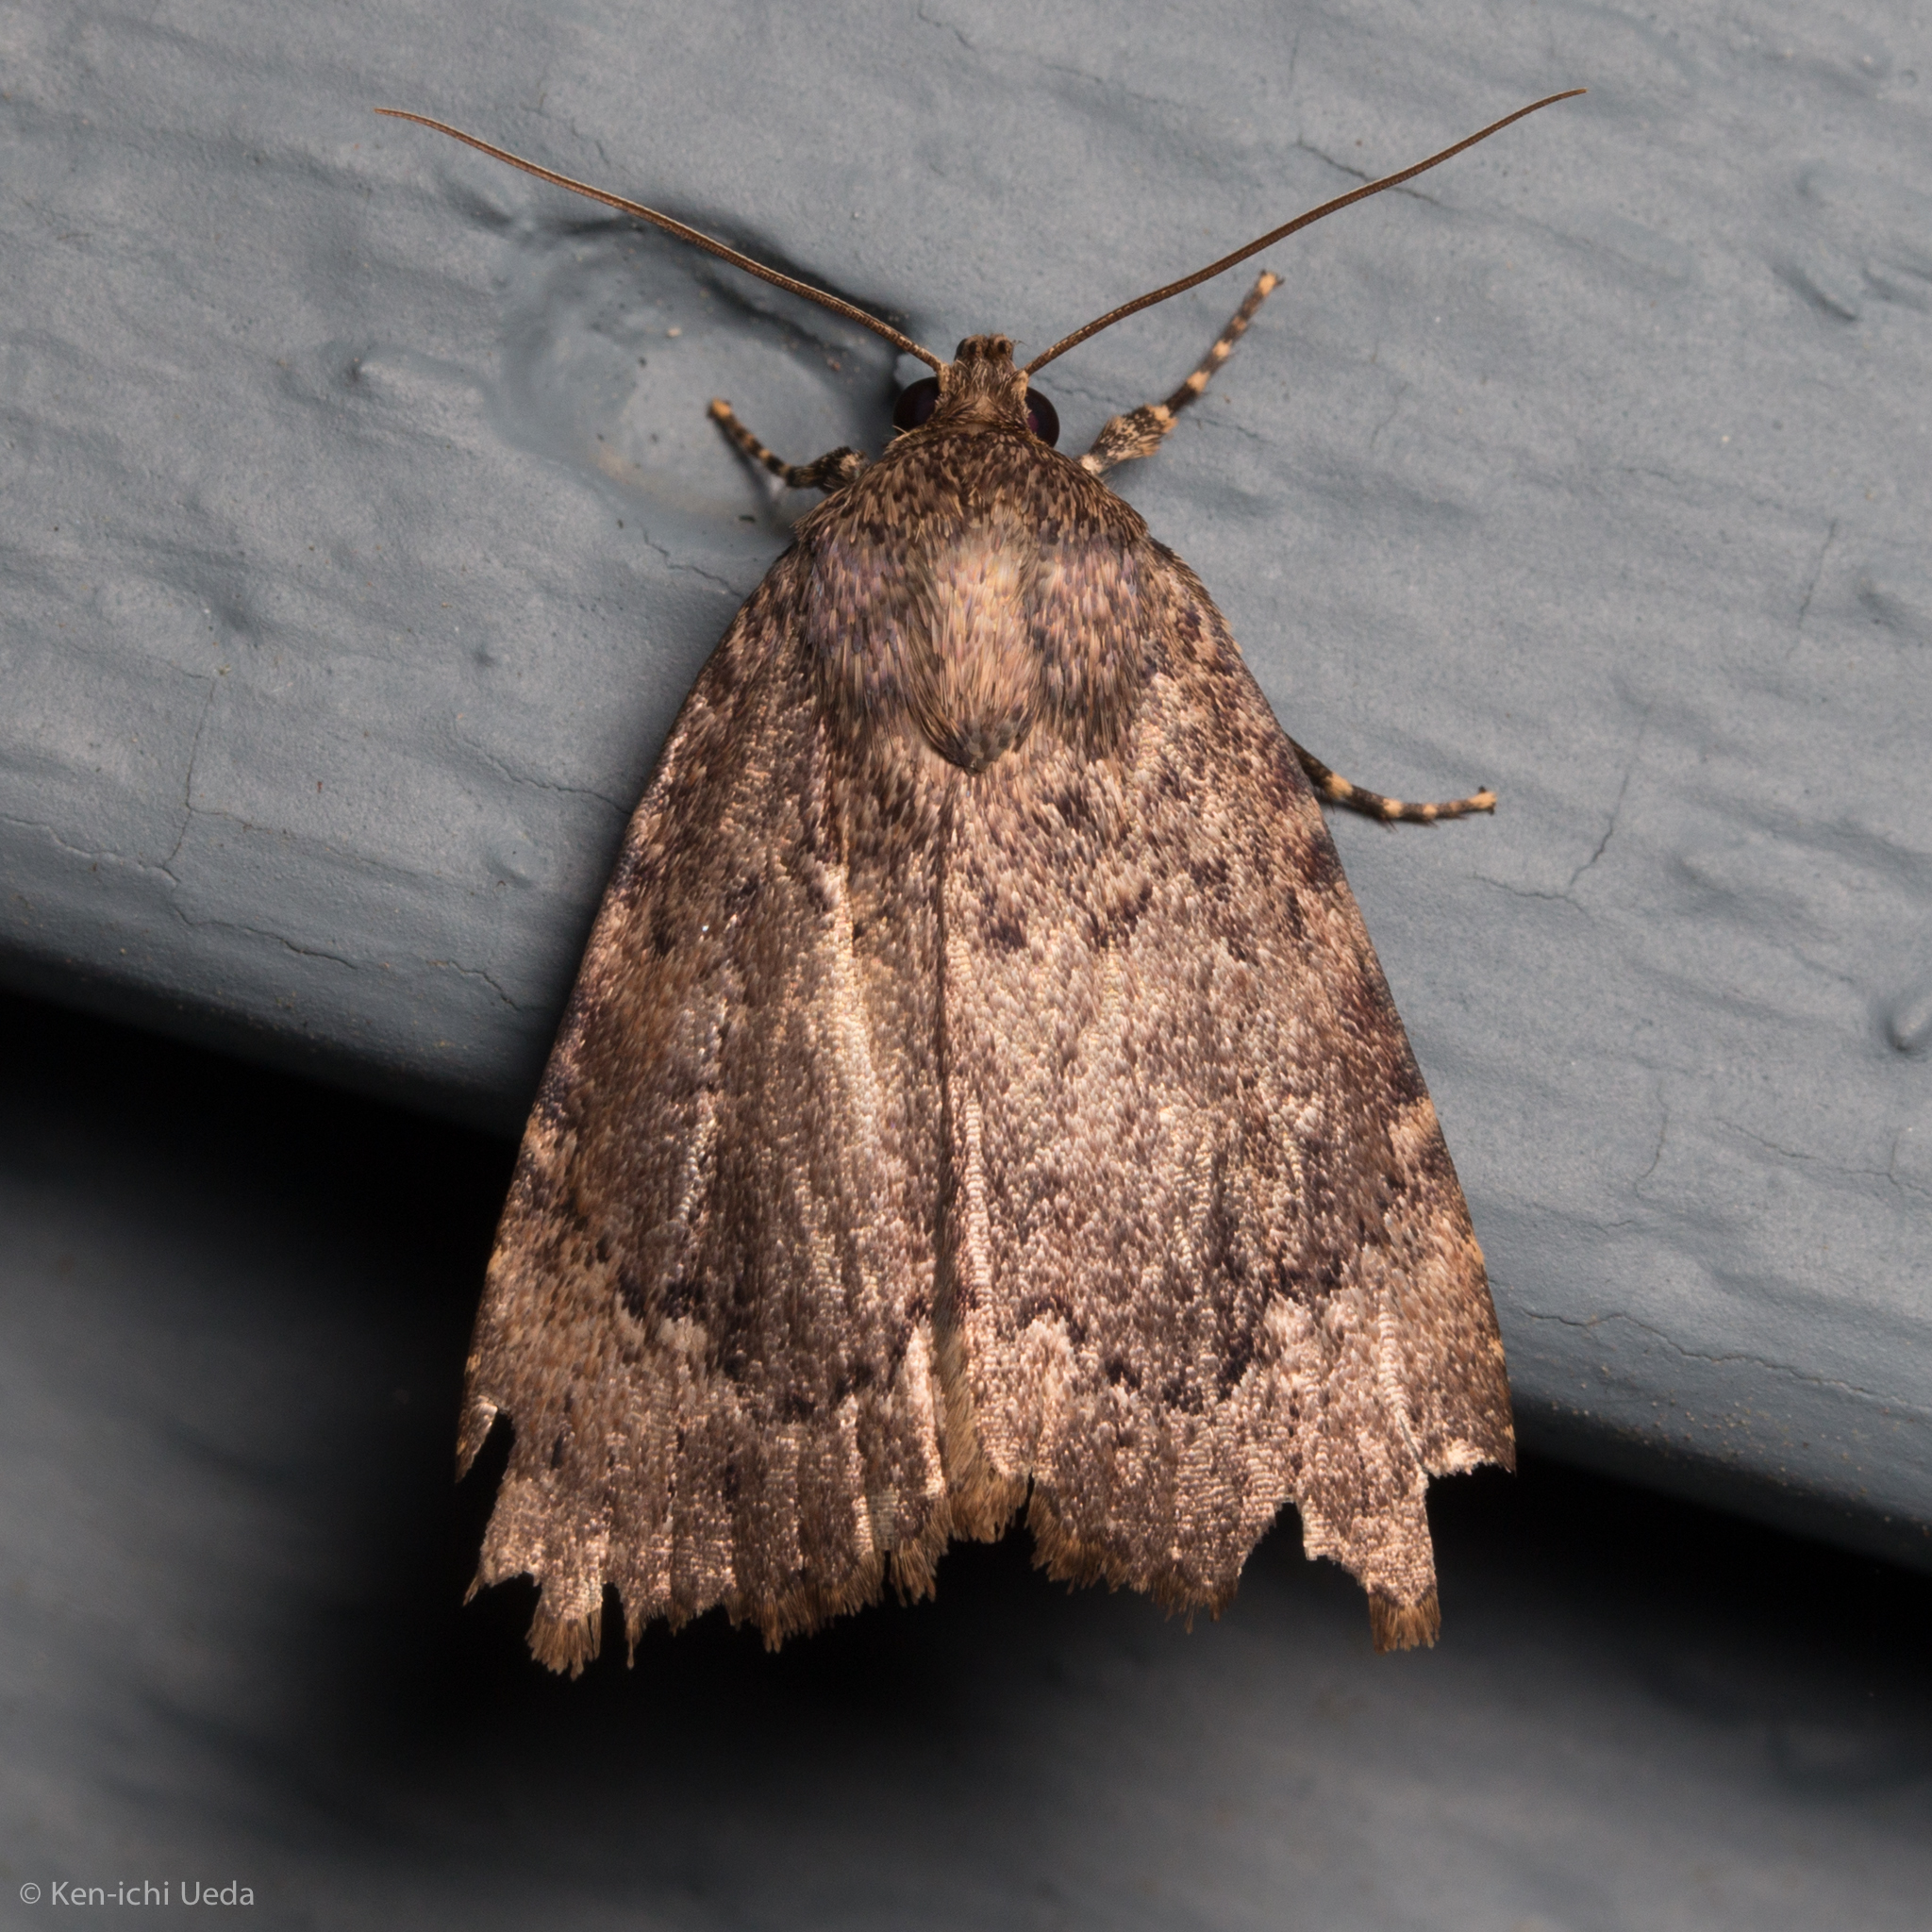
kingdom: Animalia
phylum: Arthropoda
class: Insecta
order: Lepidoptera
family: Noctuidae
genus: Amphipyra
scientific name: Amphipyra pyramidoides
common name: American copper underwing
